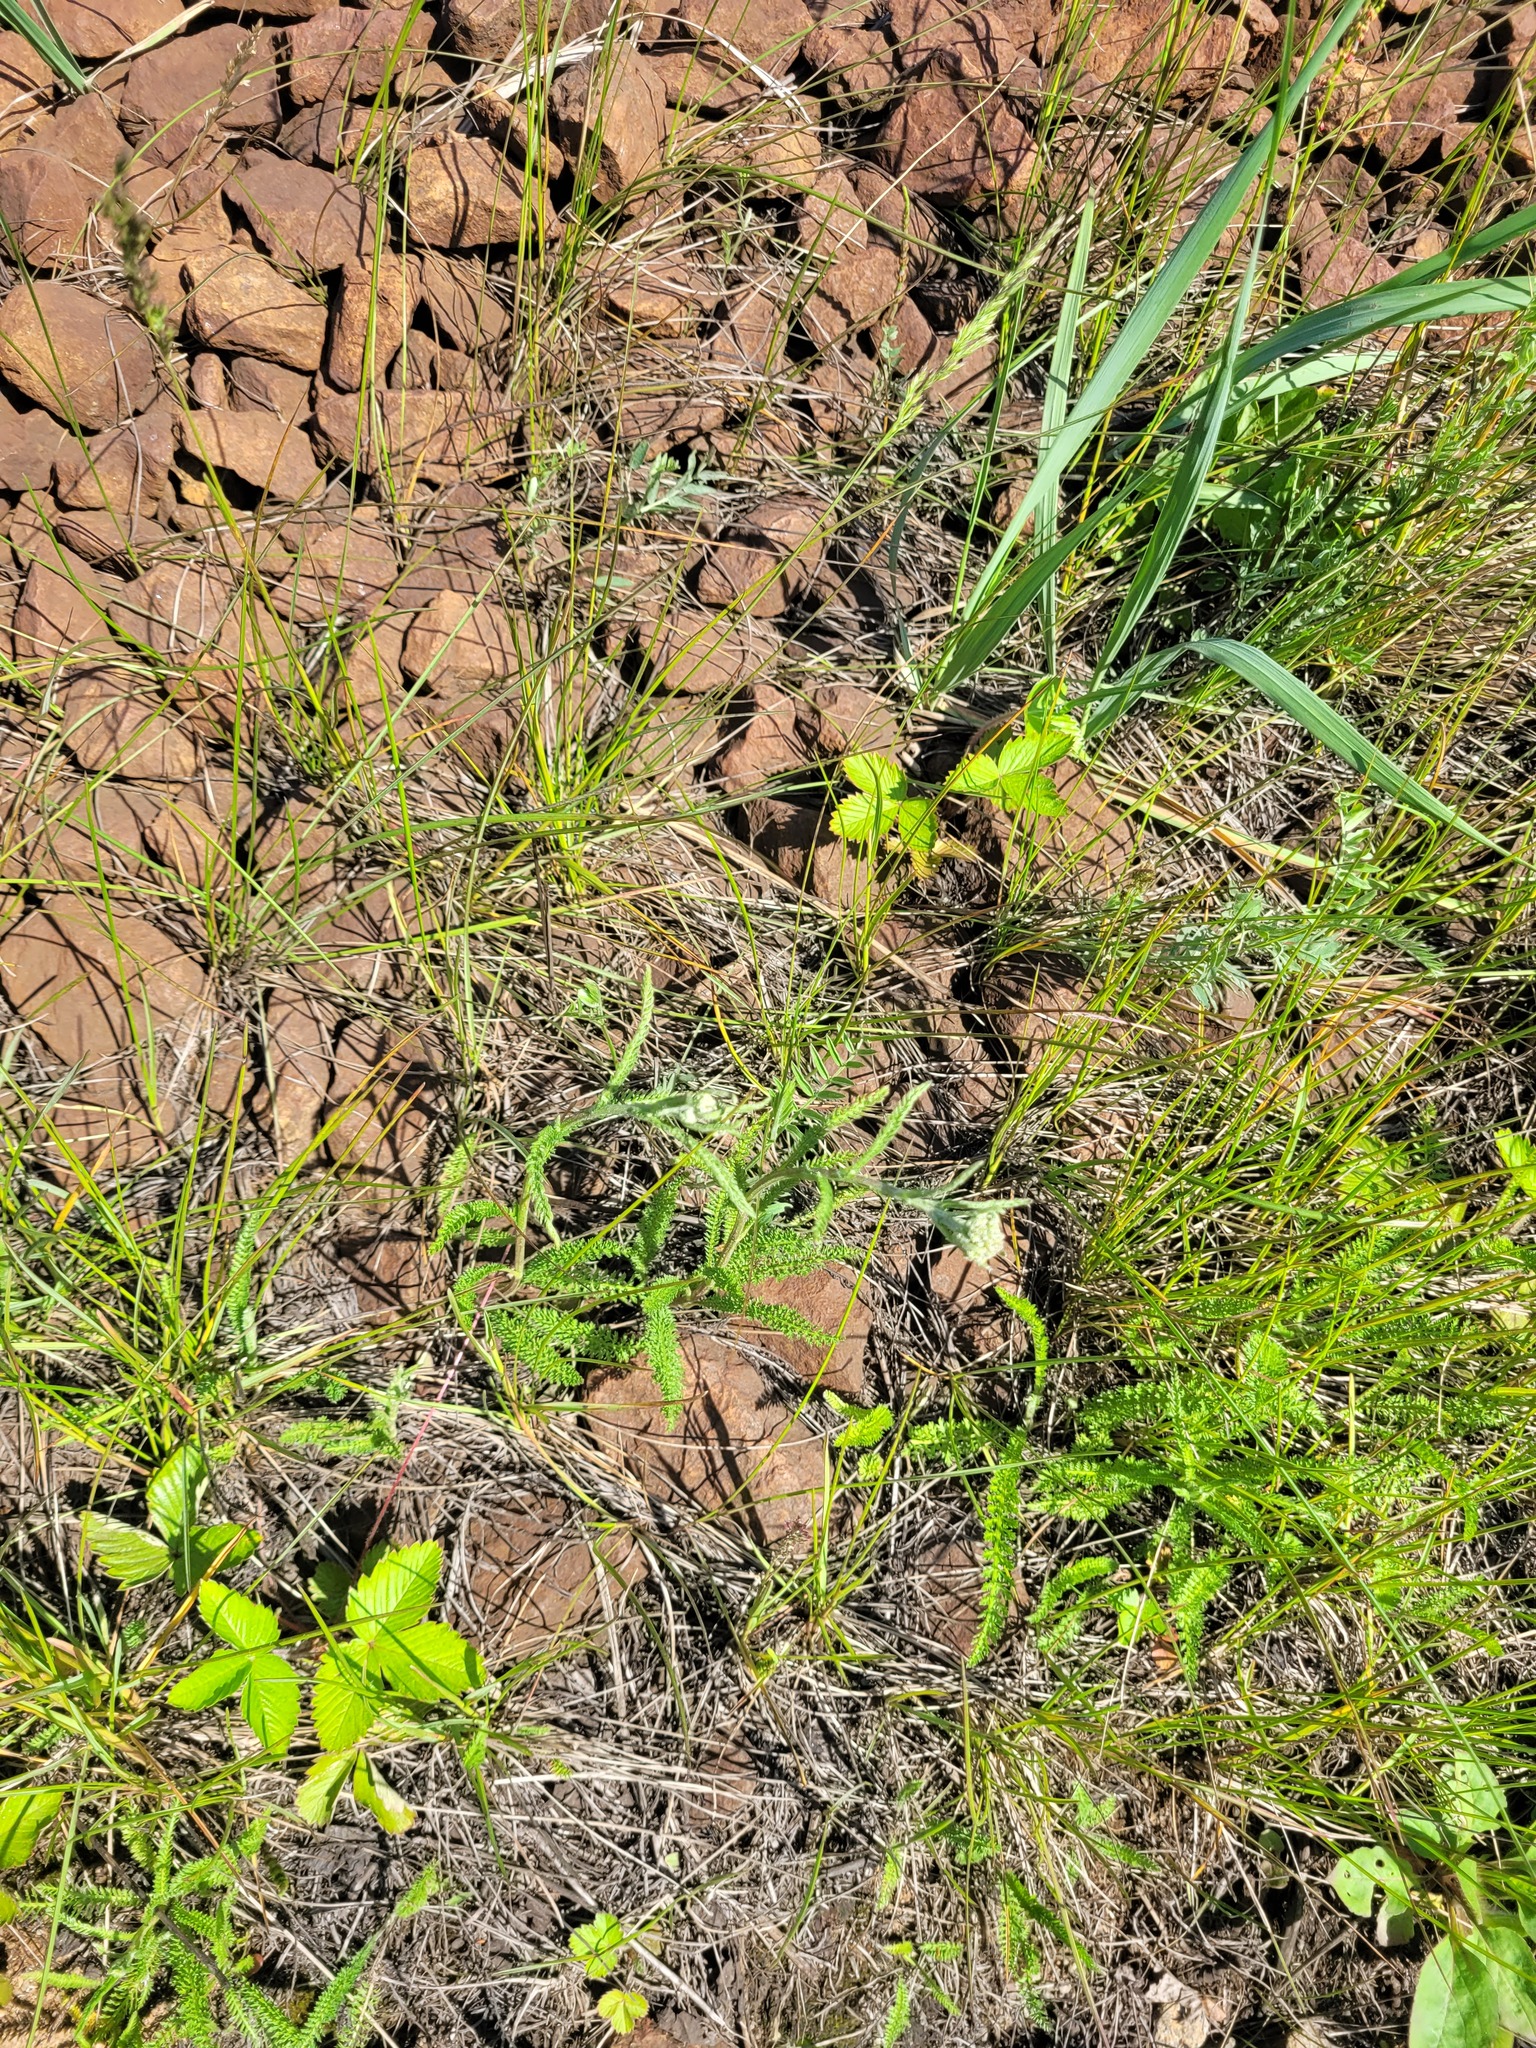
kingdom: Plantae
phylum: Tracheophyta
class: Magnoliopsida
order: Asterales
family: Asteraceae
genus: Achillea
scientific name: Achillea millefolium
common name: Yarrow
